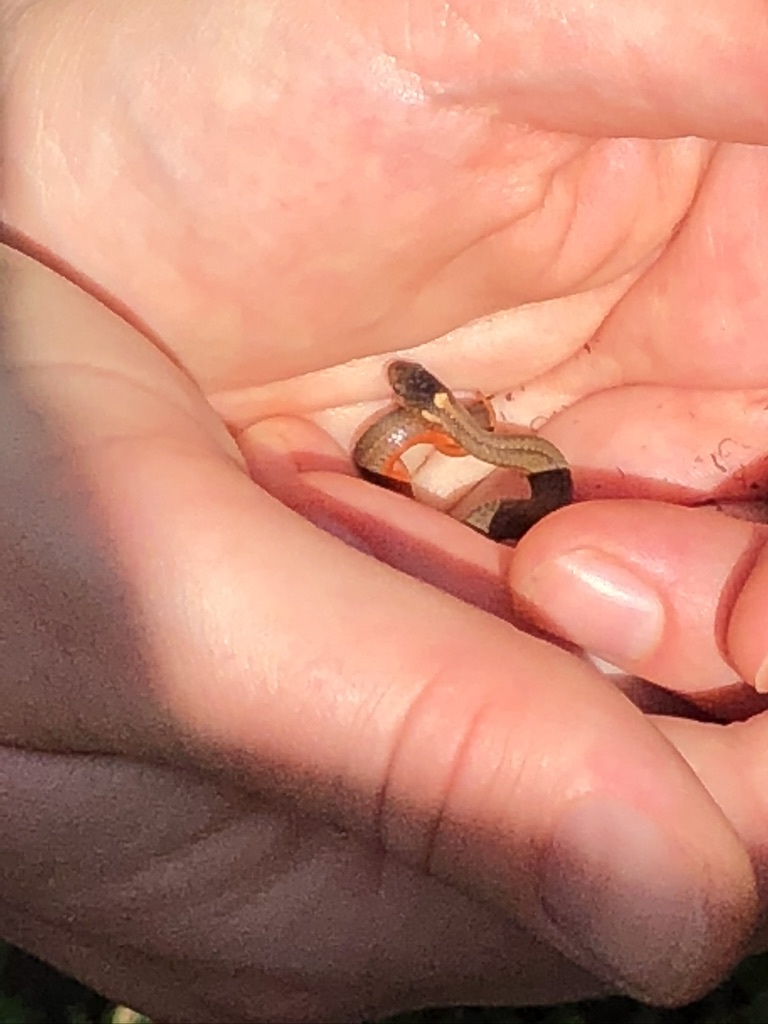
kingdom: Animalia
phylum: Chordata
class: Squamata
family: Colubridae
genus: Storeria
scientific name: Storeria occipitomaculata
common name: Redbelly snake
